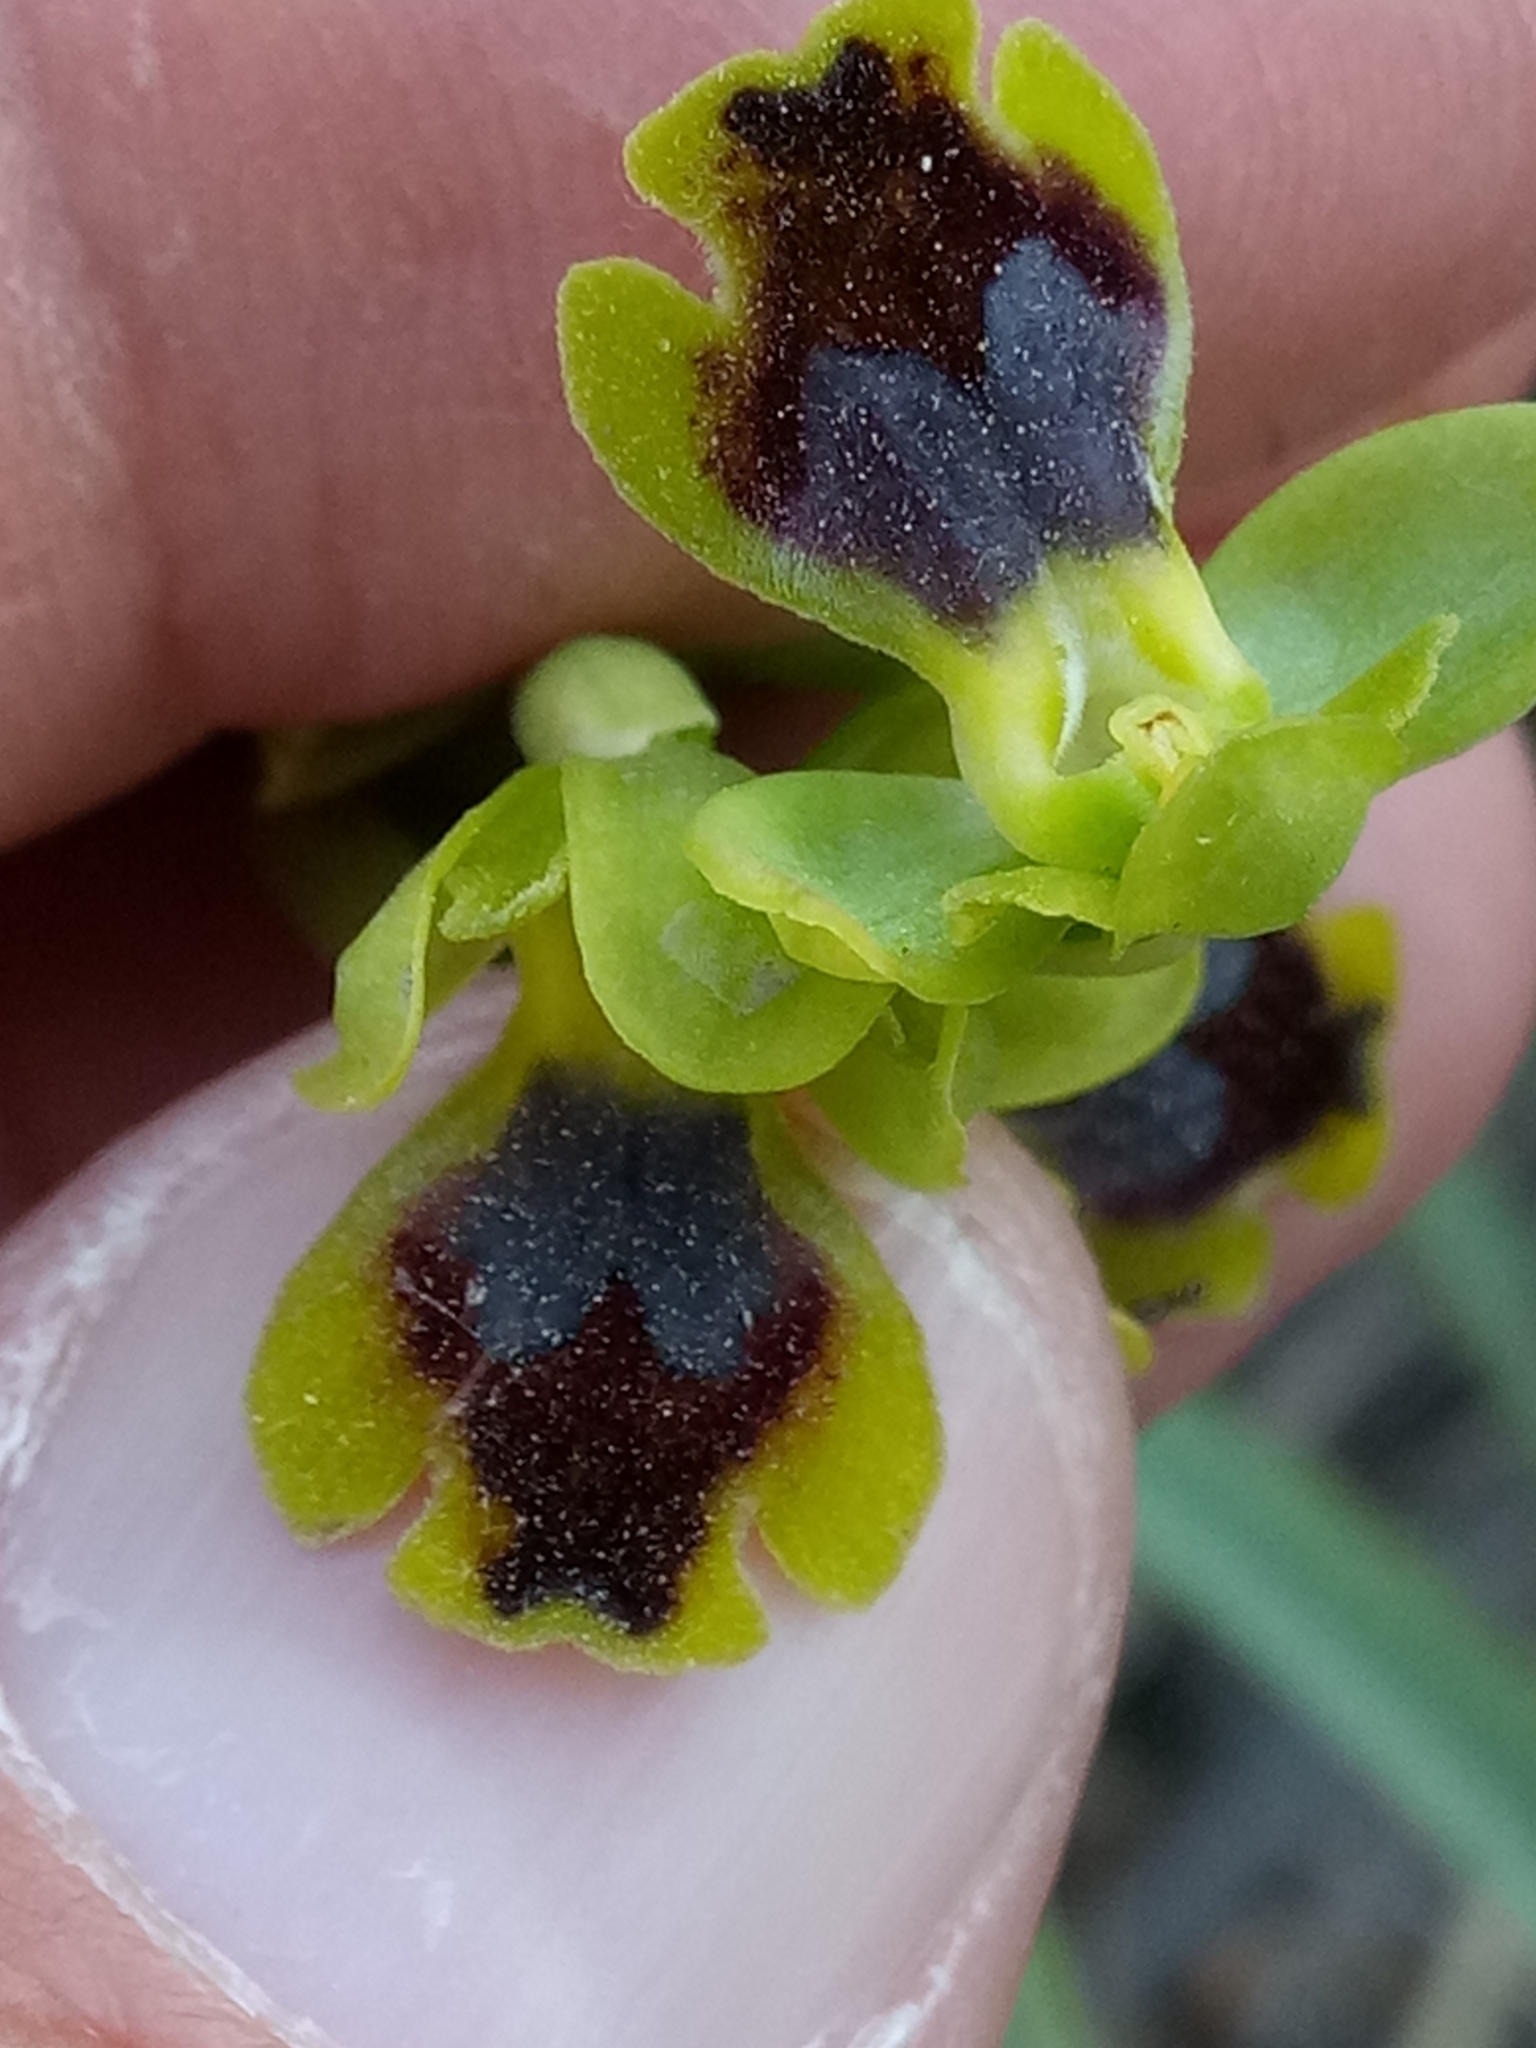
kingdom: Plantae
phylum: Tracheophyta
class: Liliopsida
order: Asparagales
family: Orchidaceae
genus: Ophrys
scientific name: Ophrys battandieri
